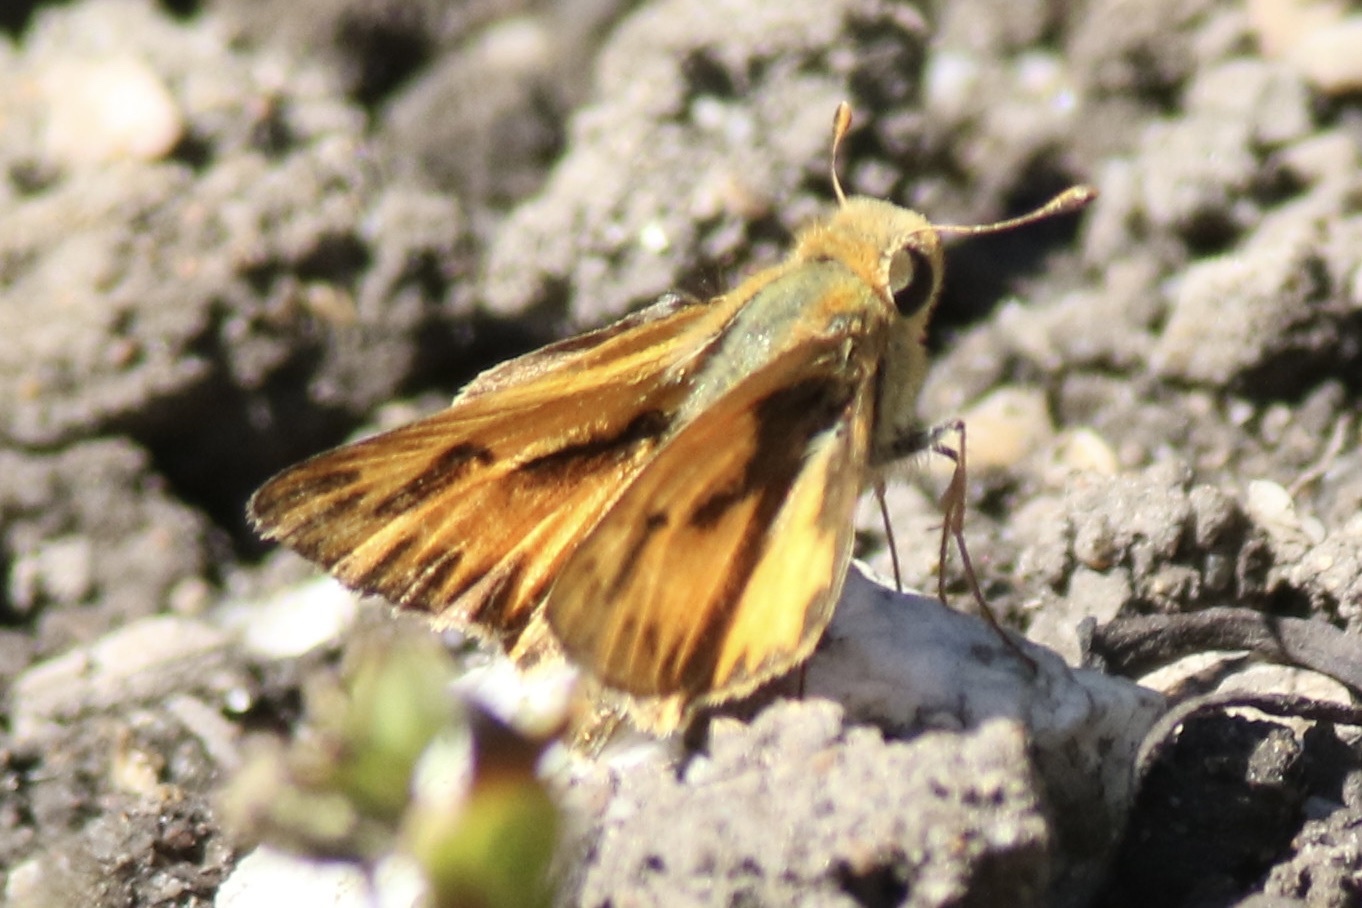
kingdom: Animalia
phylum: Arthropoda
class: Insecta
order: Lepidoptera
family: Hesperiidae
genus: Hylephila
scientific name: Hylephila phyleus
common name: Fiery skipper
